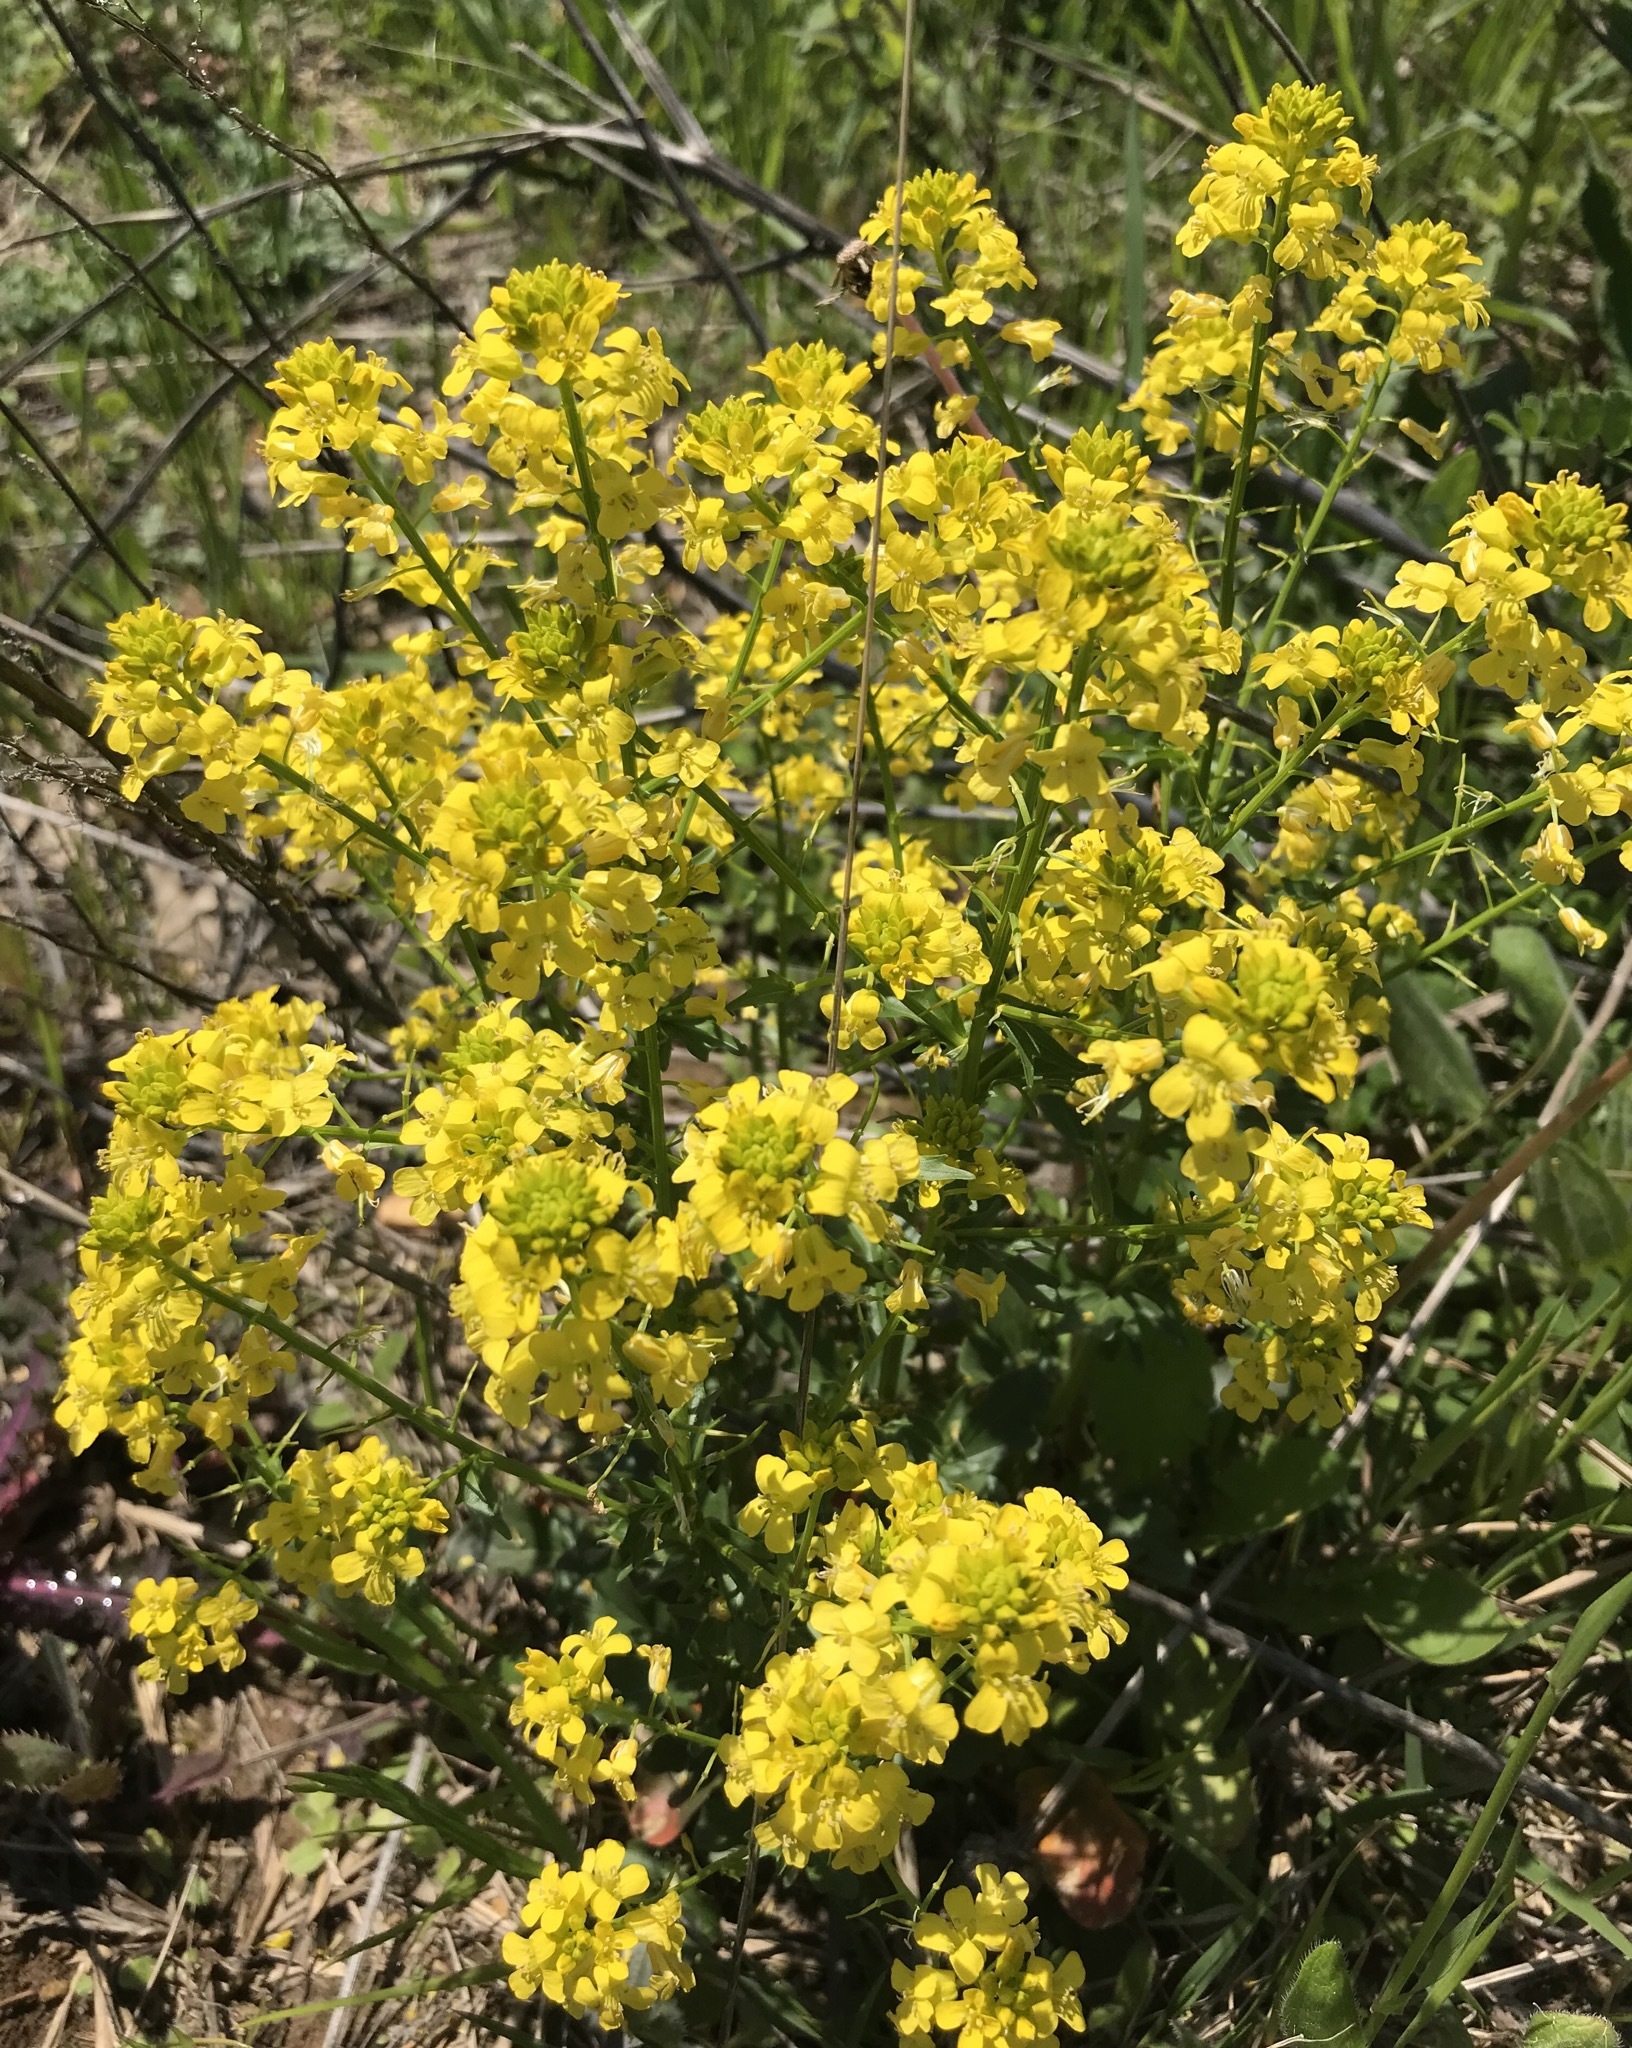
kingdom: Plantae
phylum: Tracheophyta
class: Magnoliopsida
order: Brassicales
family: Brassicaceae
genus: Barbarea
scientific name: Barbarea vulgaris
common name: Cressy-greens
